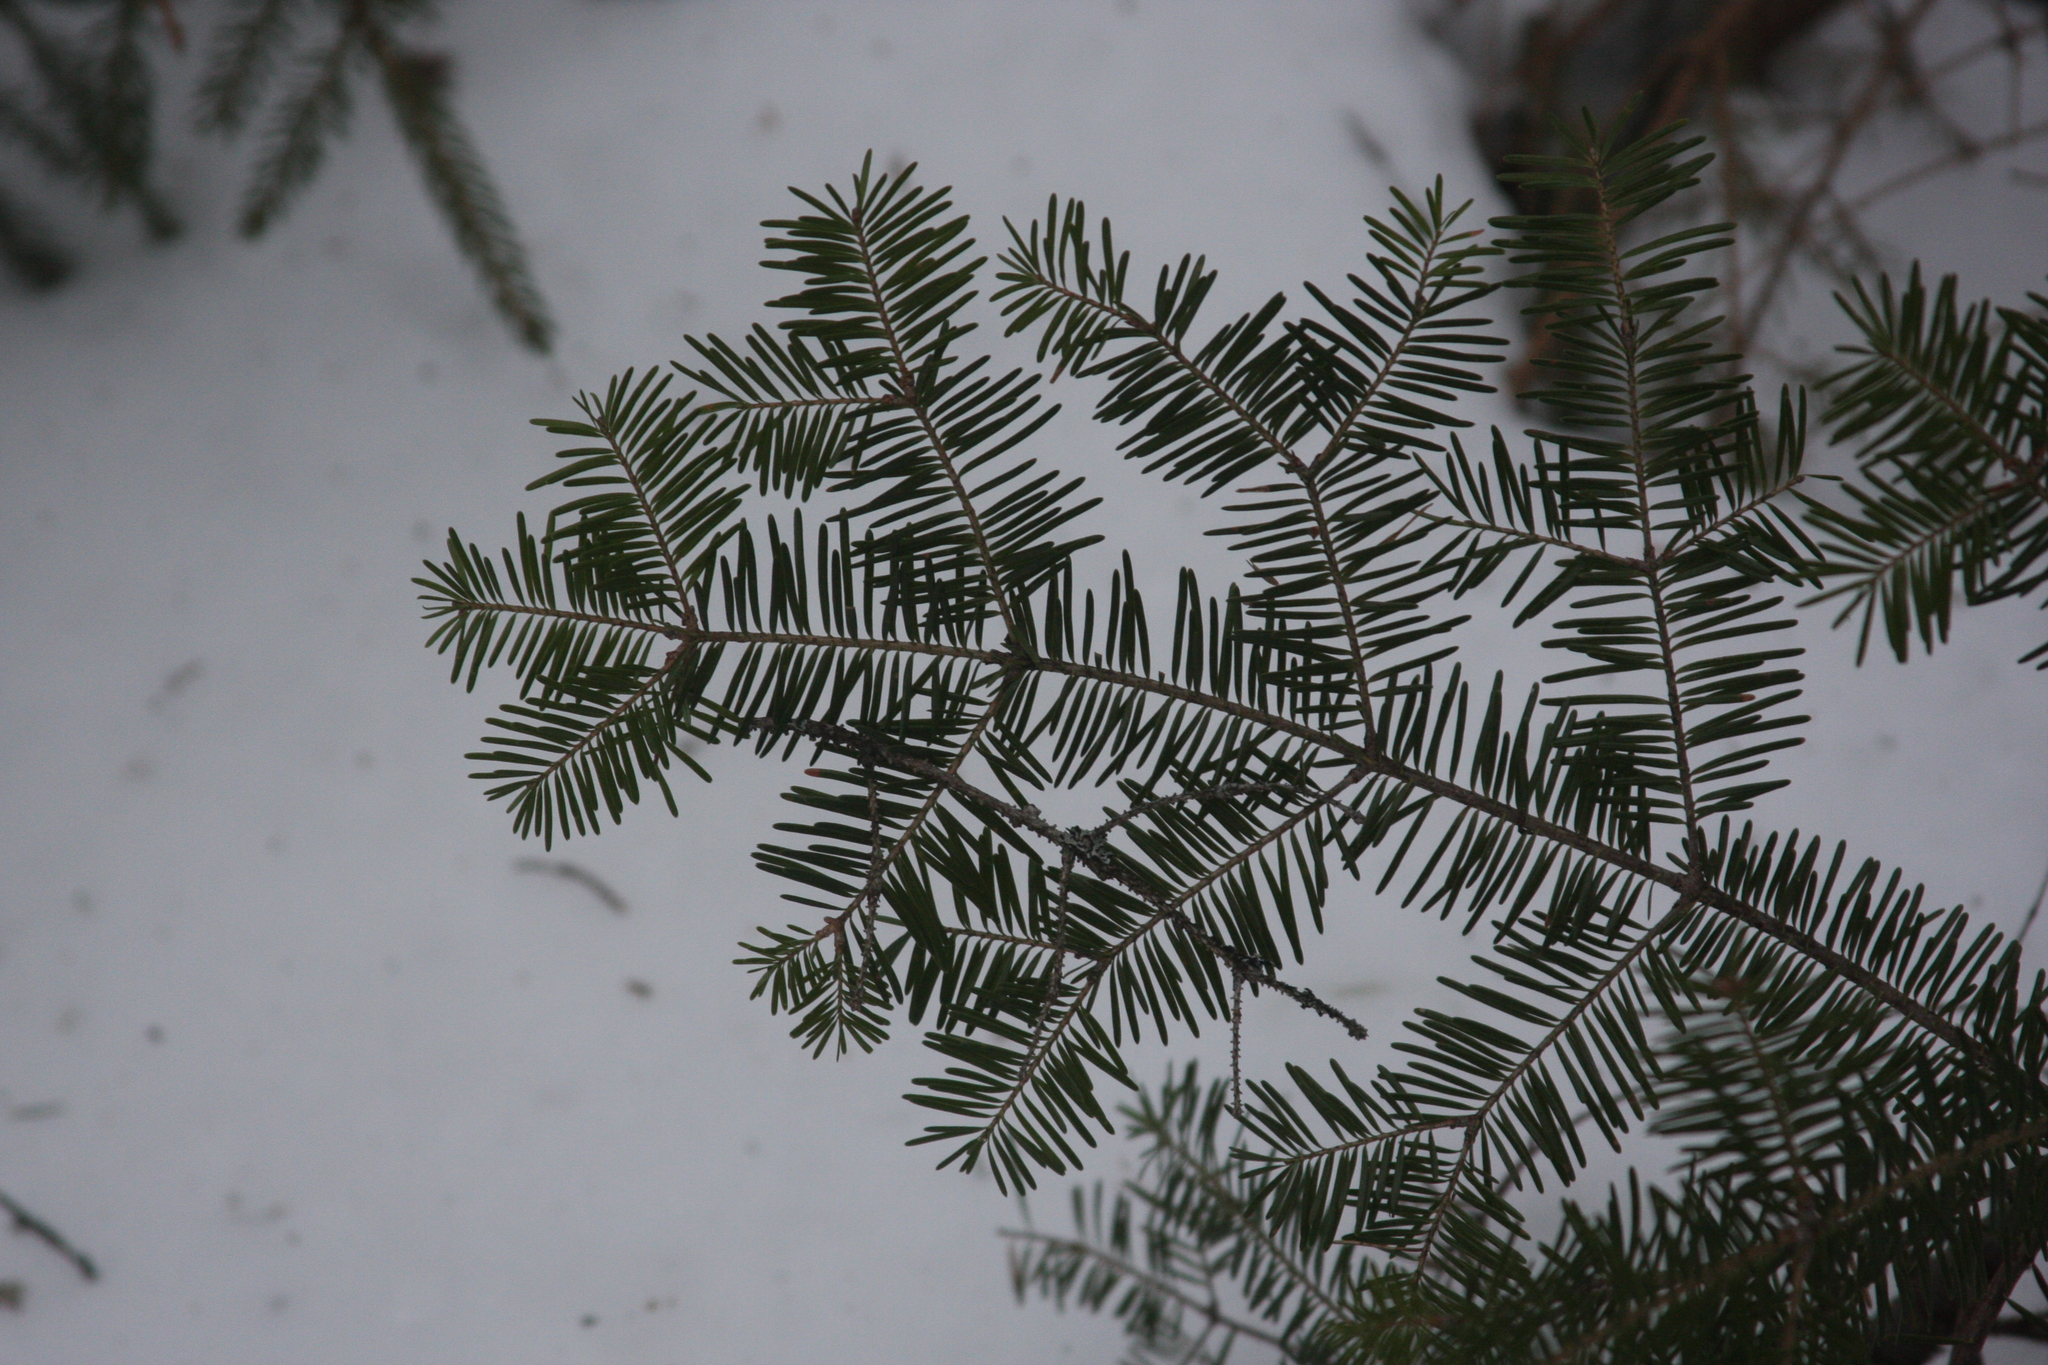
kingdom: Plantae
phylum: Tracheophyta
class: Pinopsida
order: Pinales
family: Pinaceae
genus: Abies
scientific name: Abies balsamea
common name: Balsam fir
